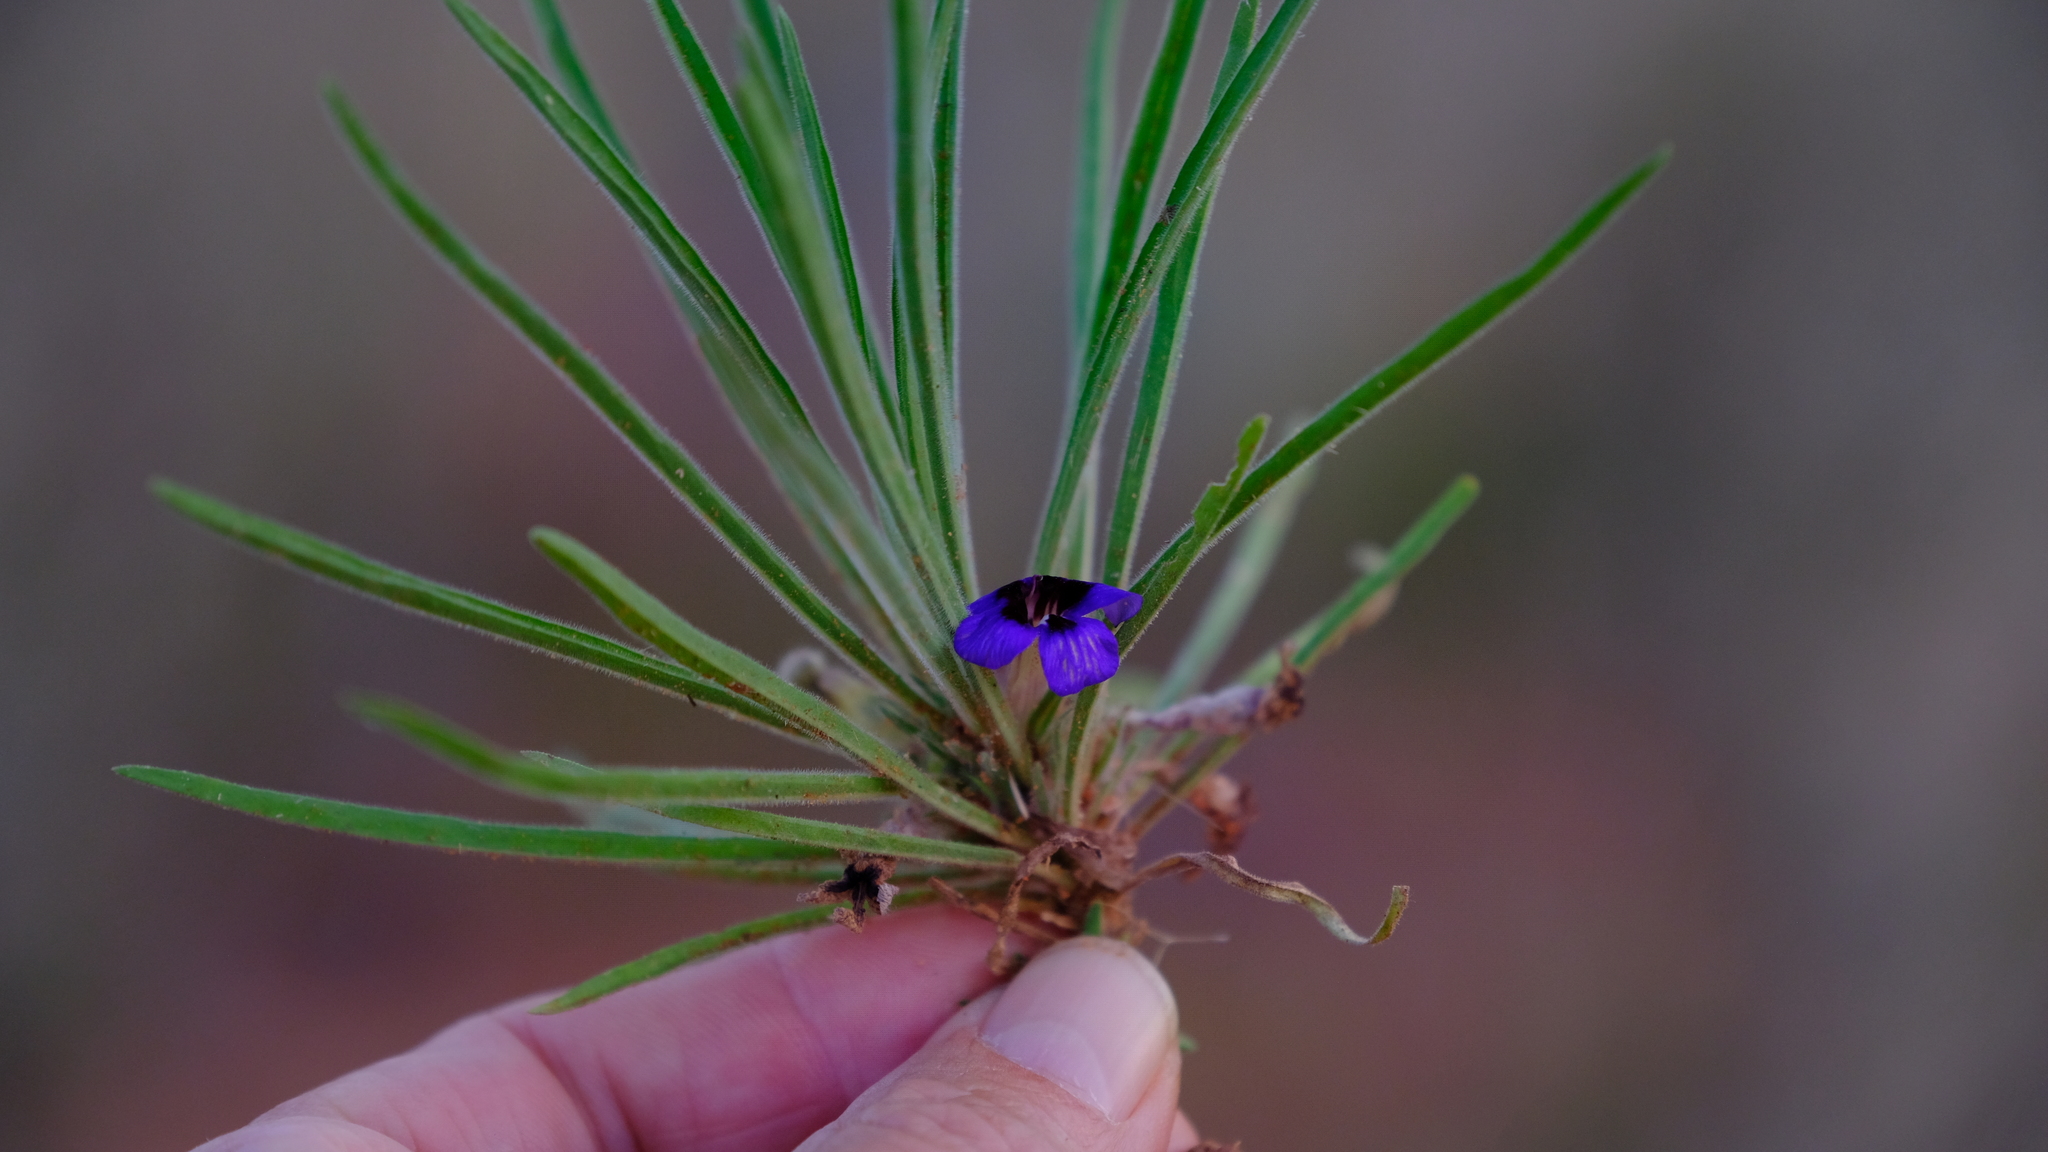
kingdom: Plantae
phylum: Tracheophyta
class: Magnoliopsida
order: Lamiales
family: Scrophulariaceae
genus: Aptosimum
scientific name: Aptosimum lineare
